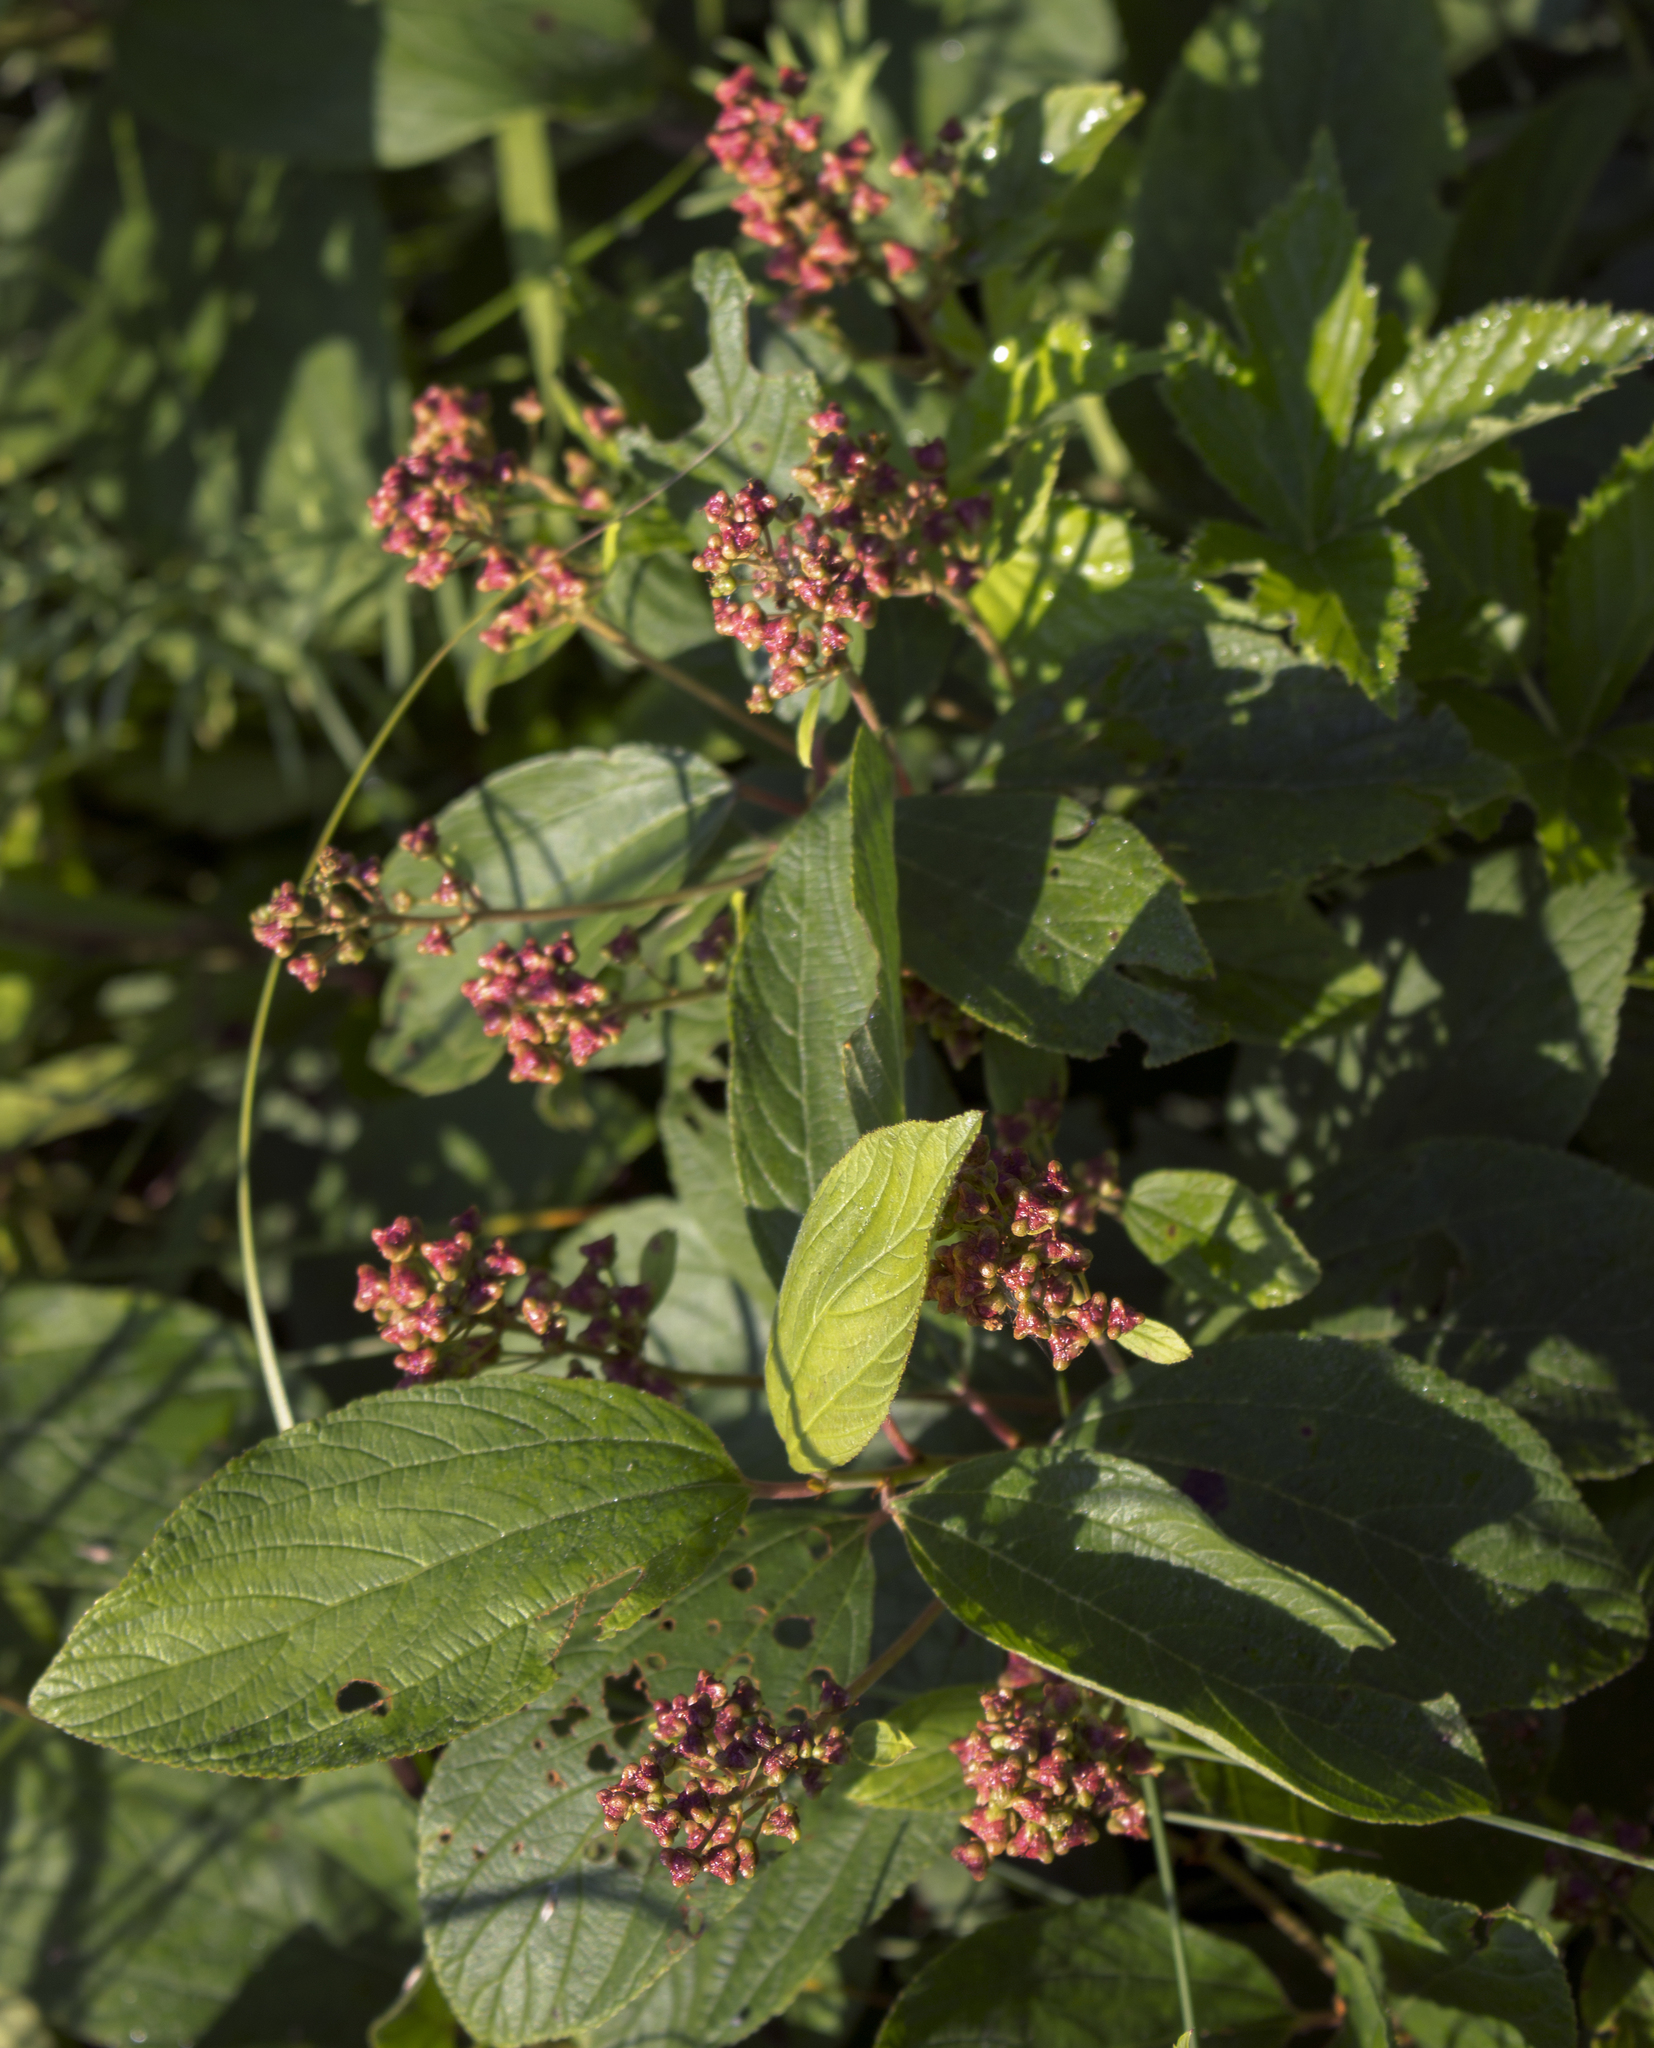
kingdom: Plantae
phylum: Tracheophyta
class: Magnoliopsida
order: Rosales
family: Rhamnaceae
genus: Ceanothus
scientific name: Ceanothus americanus
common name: Redroot
